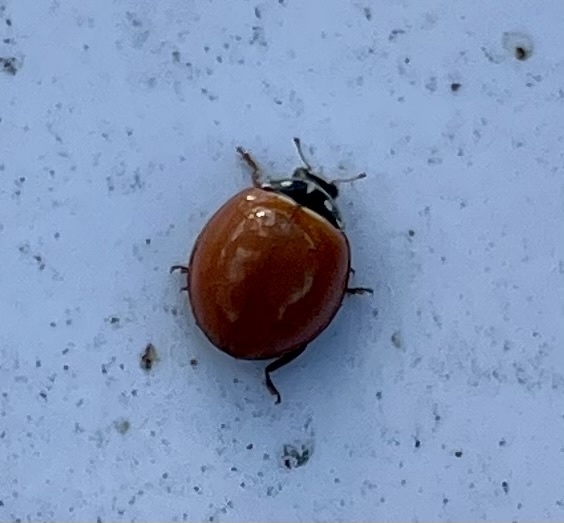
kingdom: Animalia
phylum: Arthropoda
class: Insecta
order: Coleoptera
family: Coccinellidae
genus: Cycloneda
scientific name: Cycloneda sanguinea
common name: Ladybird beetle
